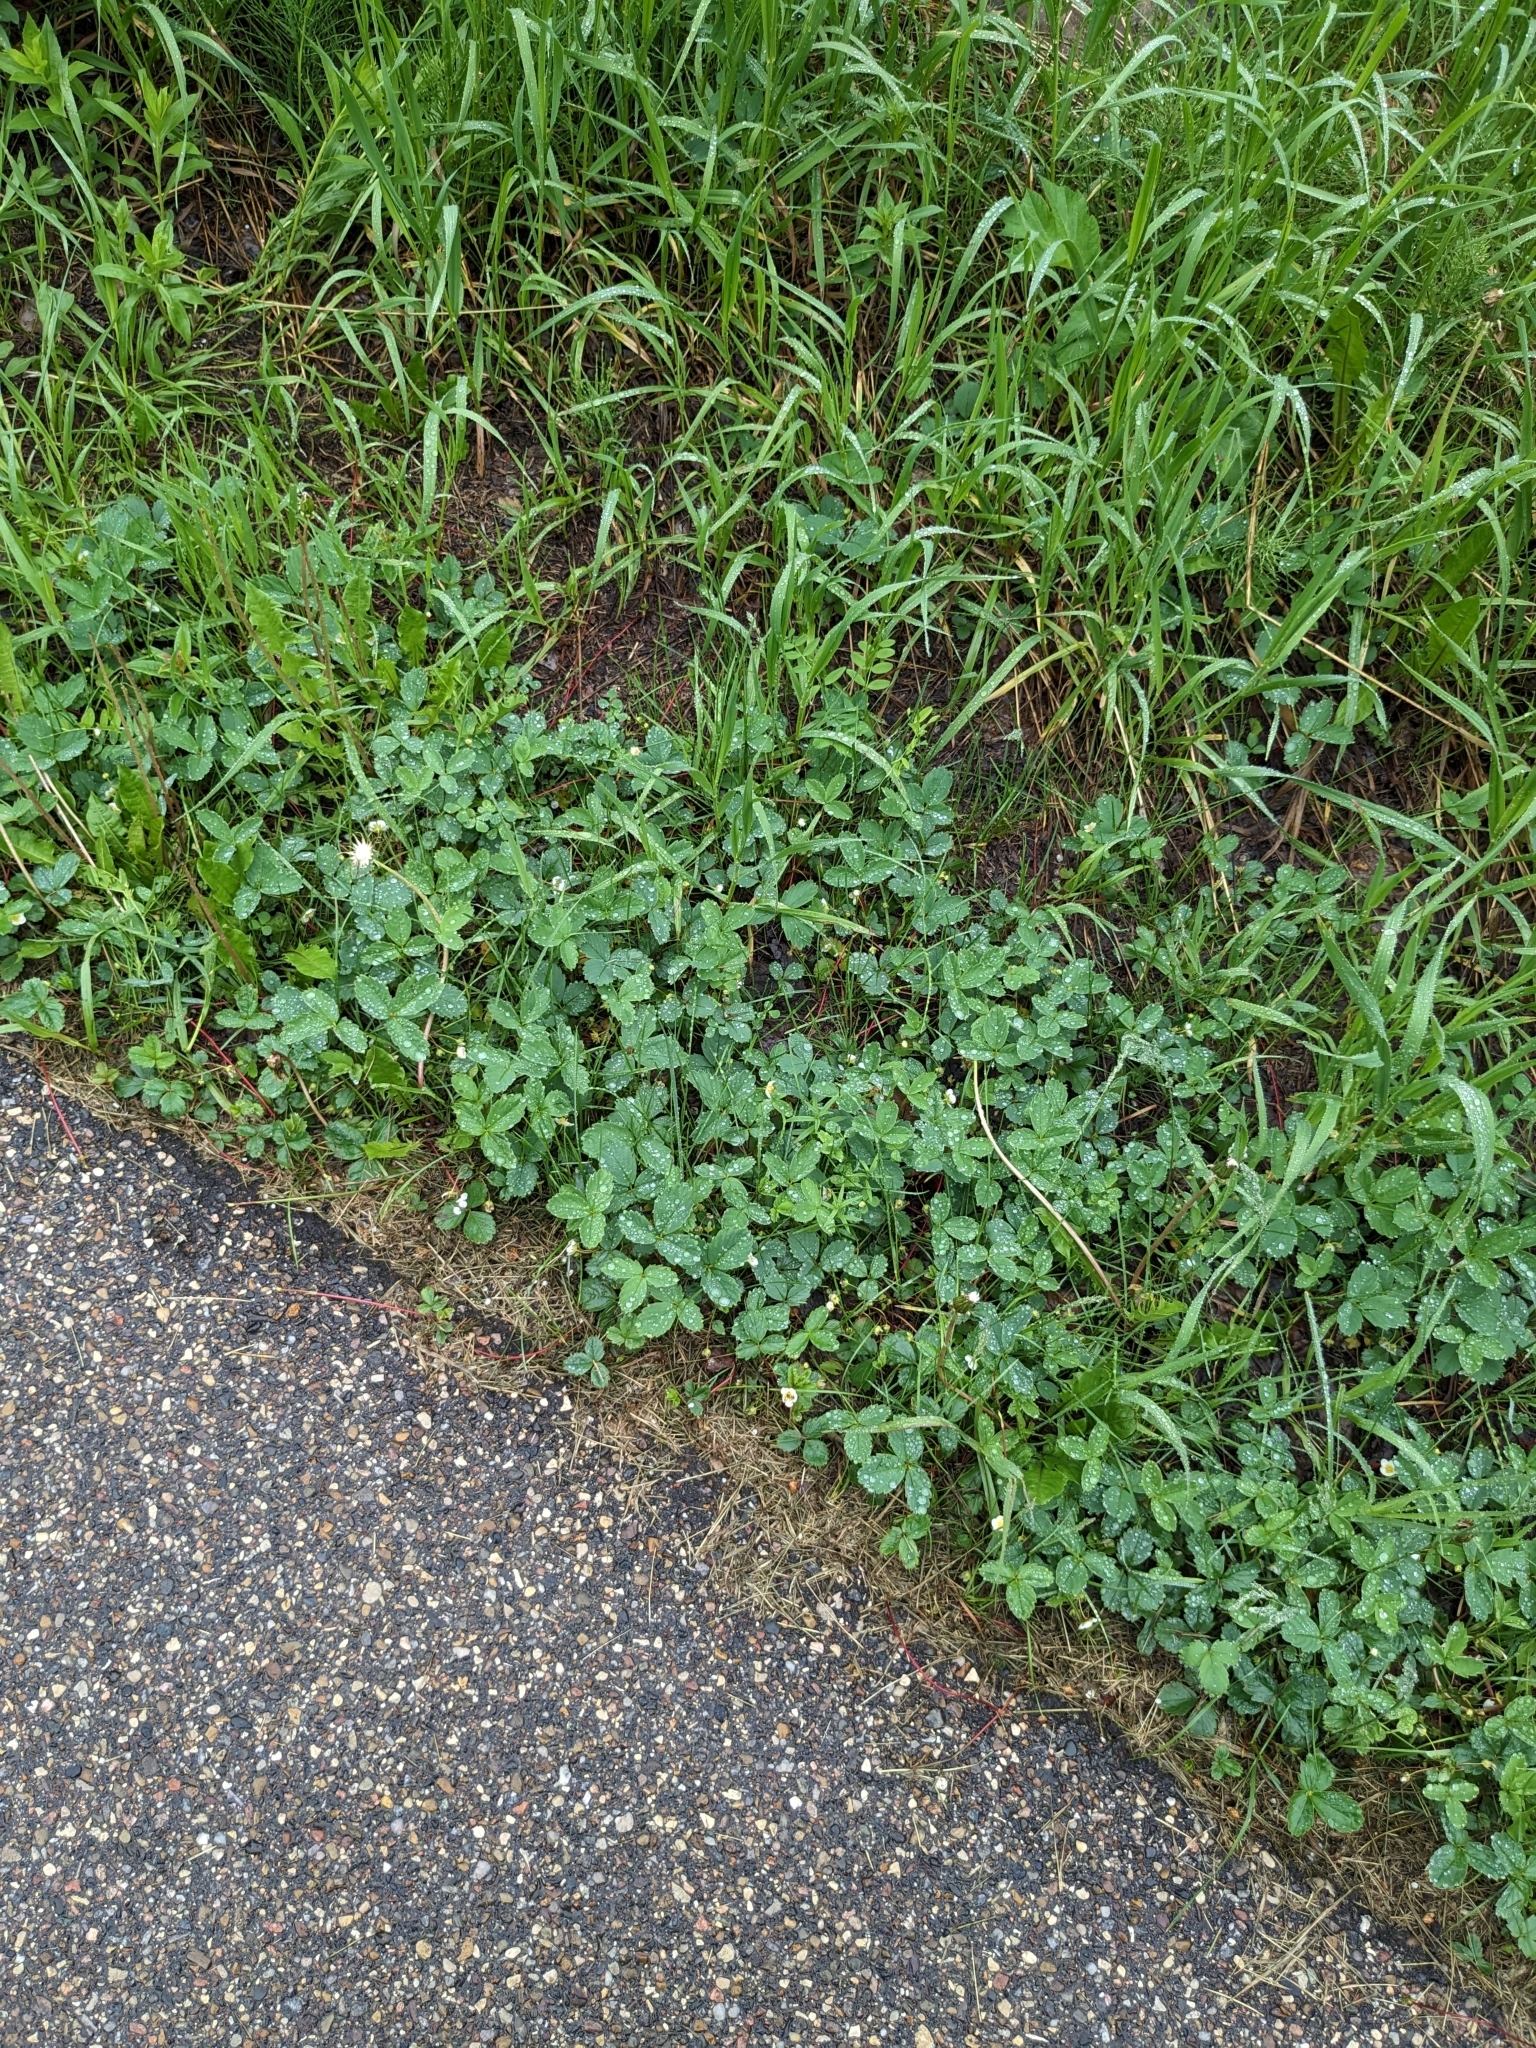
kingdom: Plantae
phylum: Tracheophyta
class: Magnoliopsida
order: Rosales
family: Rosaceae
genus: Fragaria
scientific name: Fragaria virginiana
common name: Thickleaved wild strawberry
